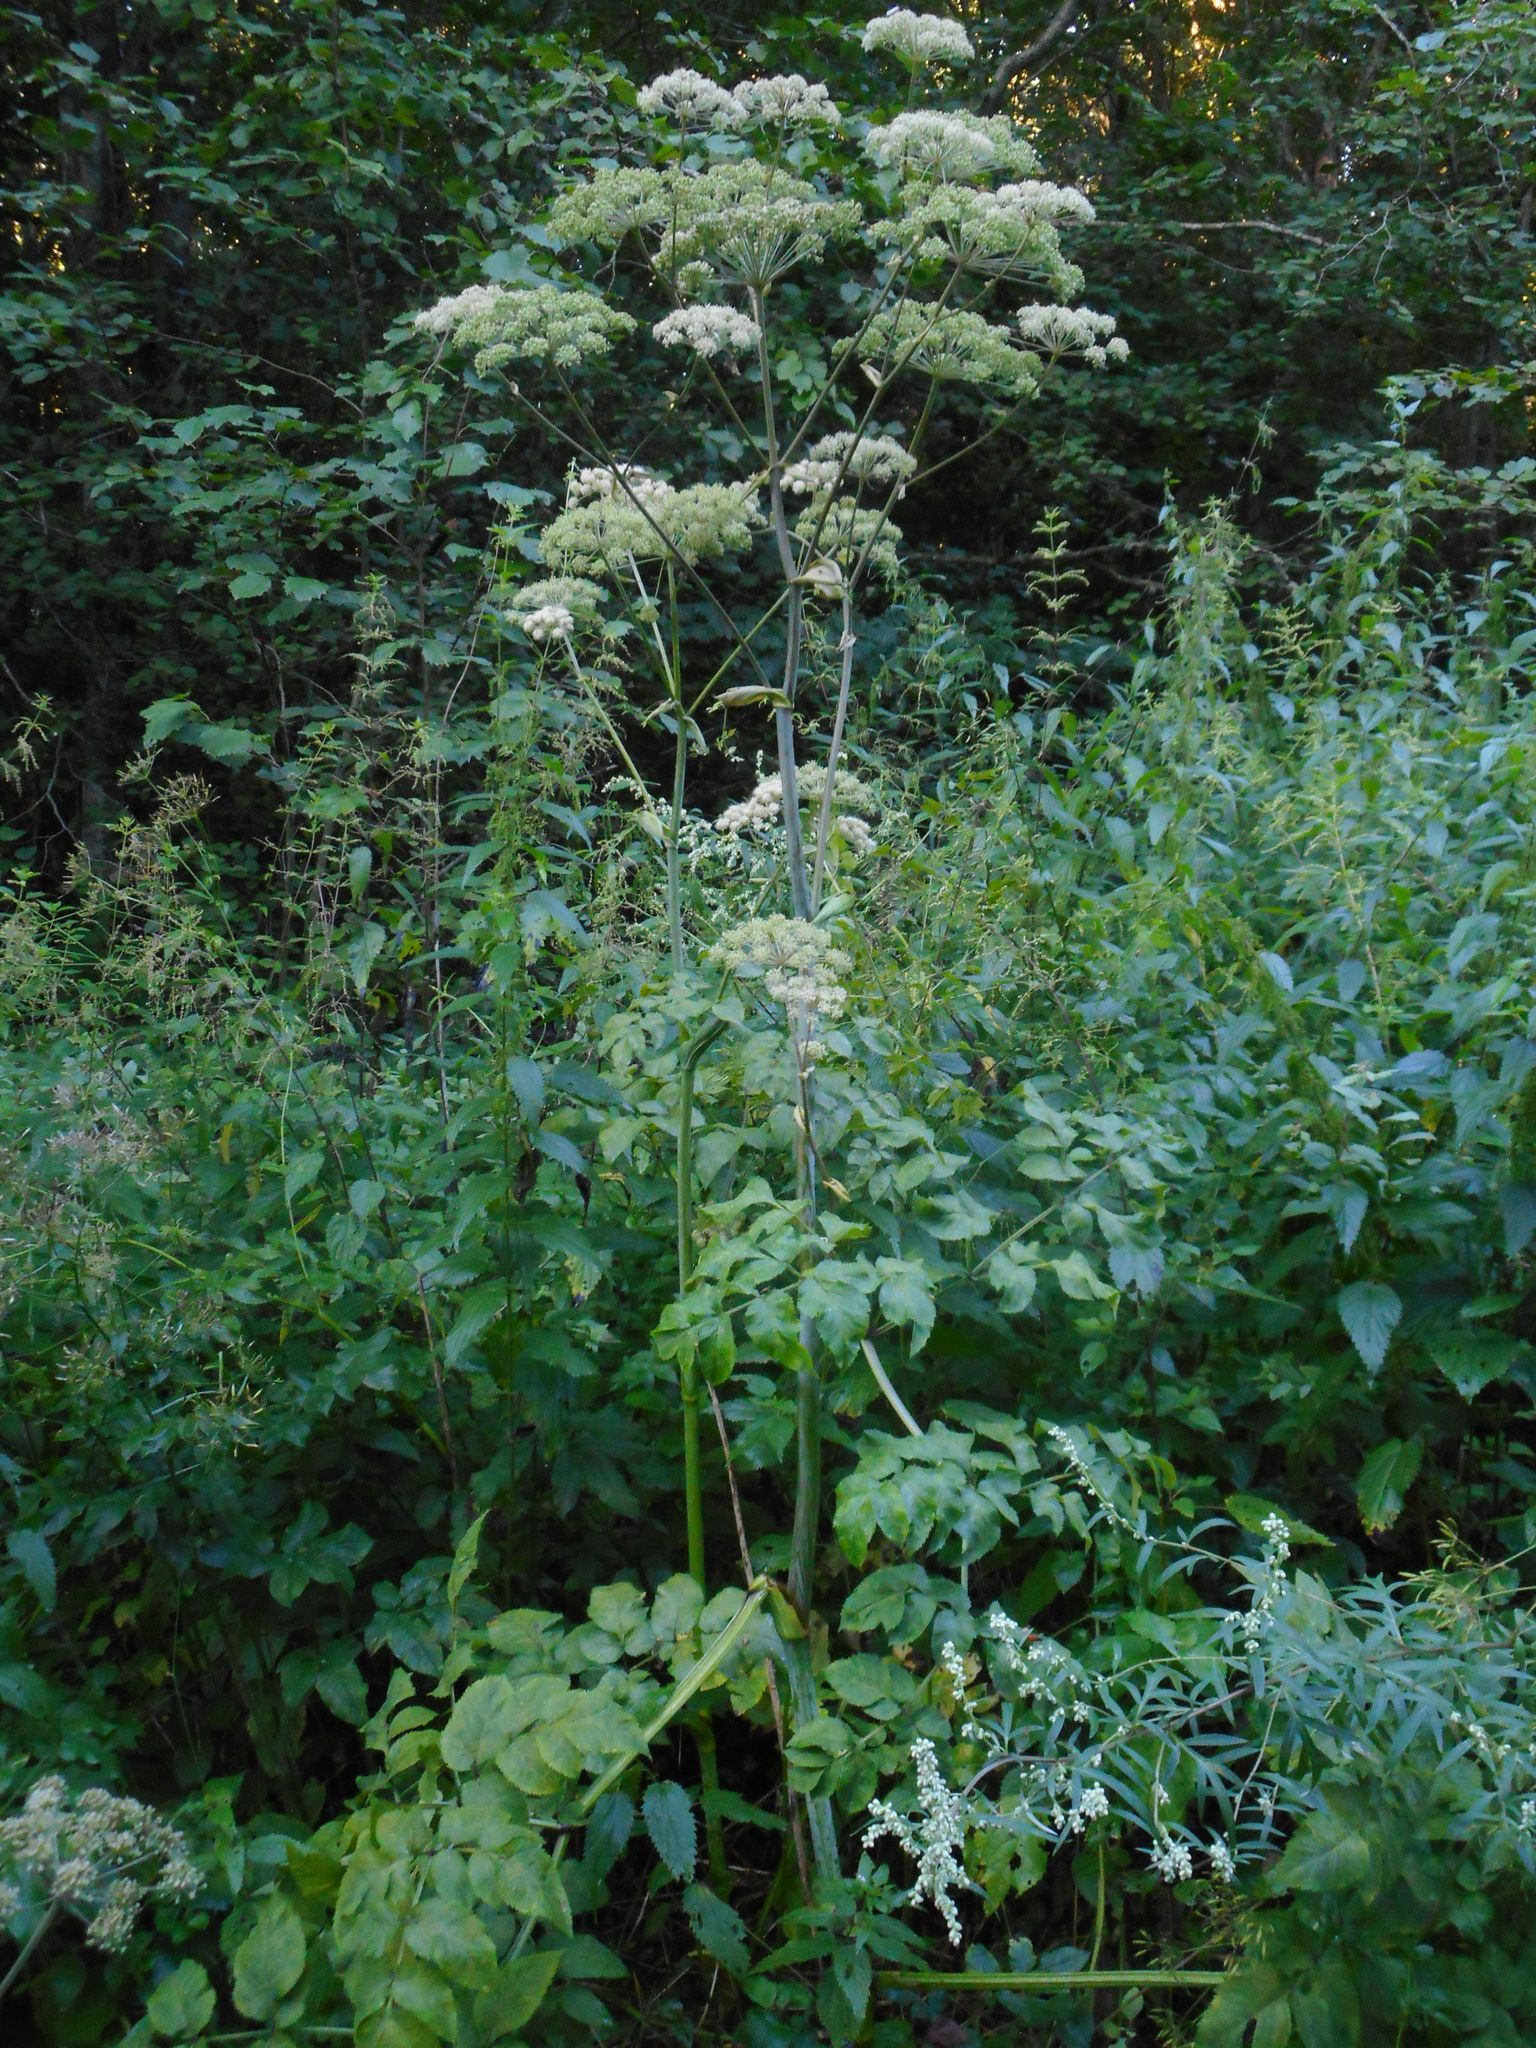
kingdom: Plantae
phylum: Tracheophyta
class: Magnoliopsida
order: Apiales
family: Apiaceae
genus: Angelica
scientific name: Angelica sylvestris
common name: Wild angelica
